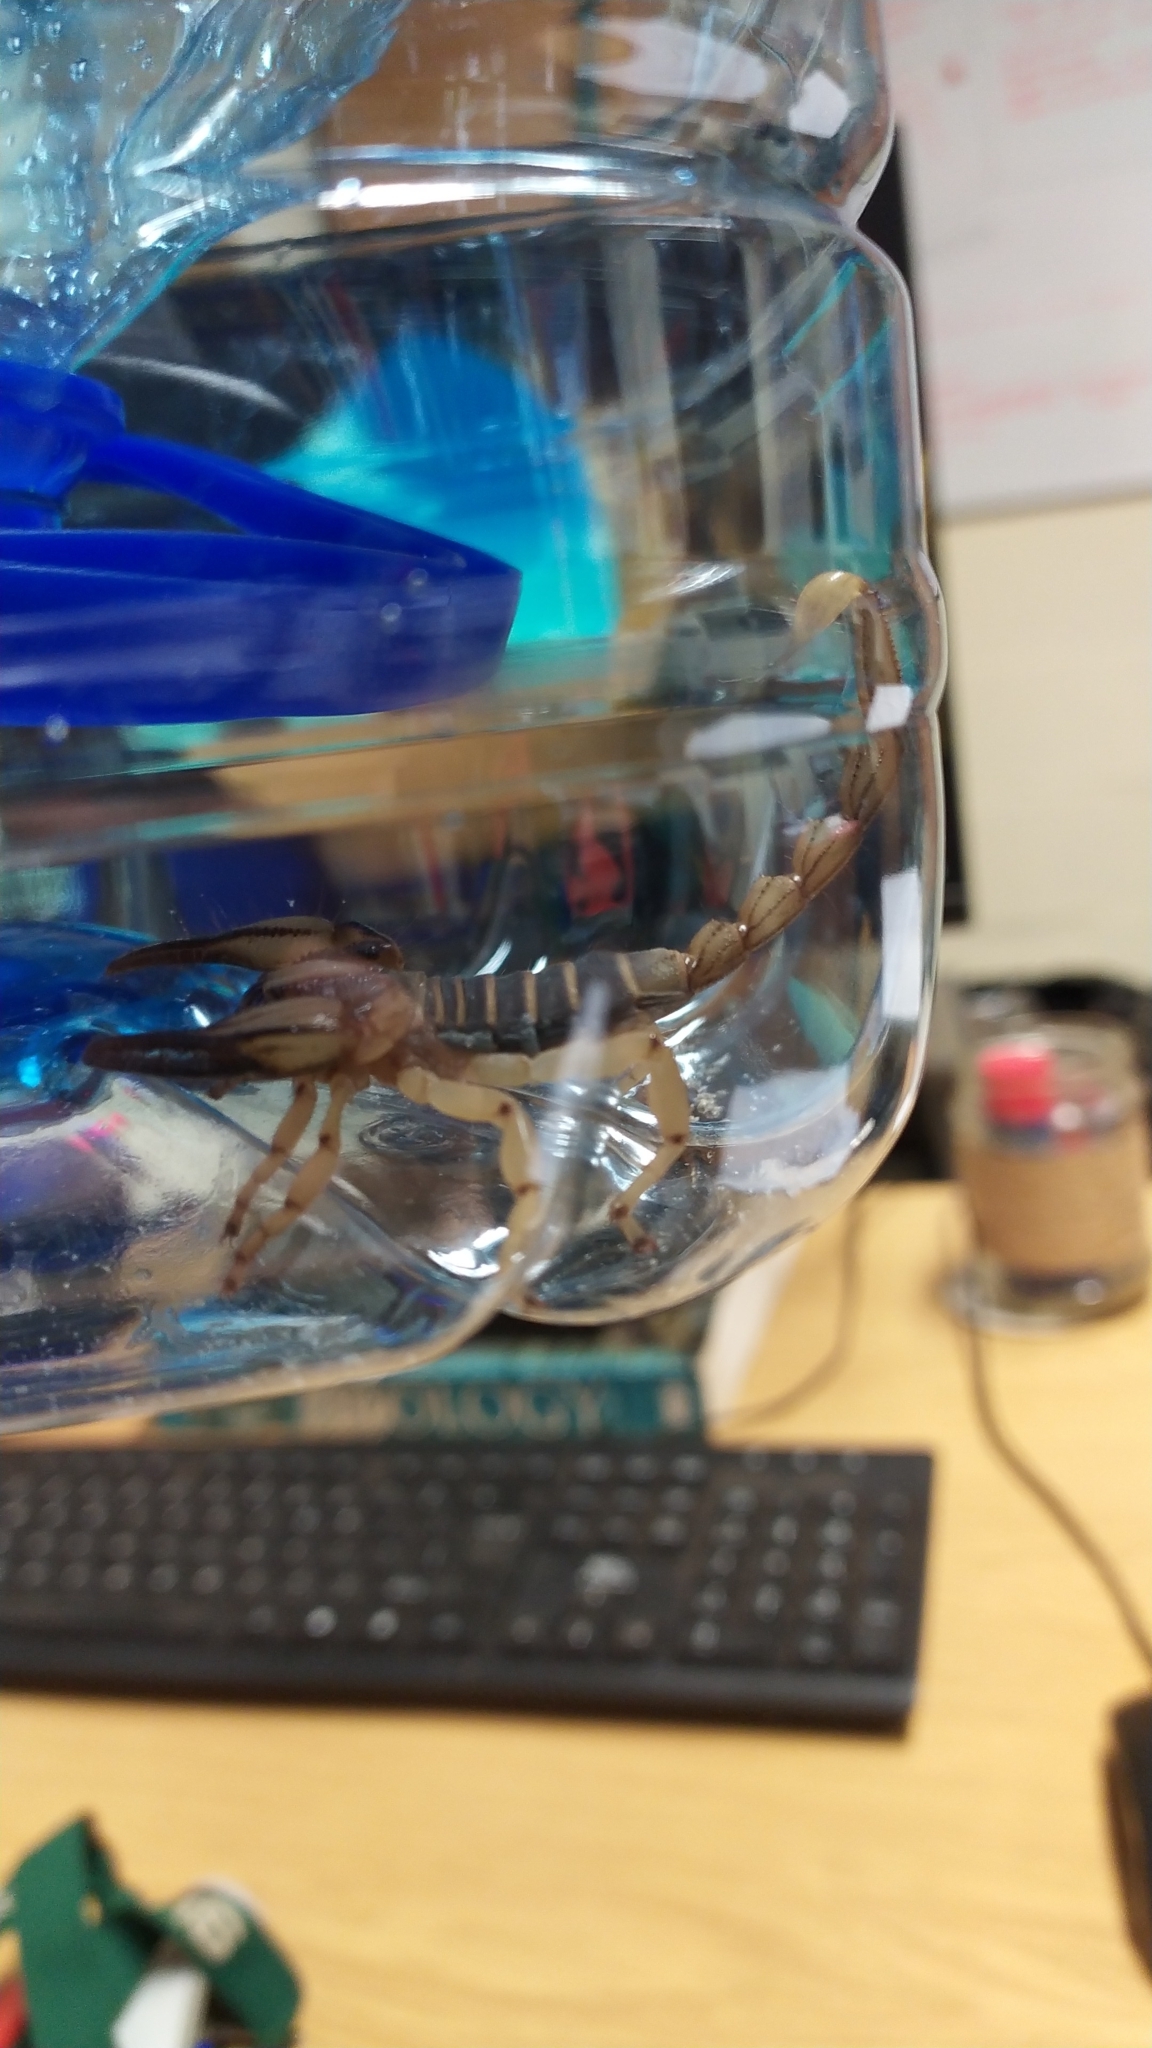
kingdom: Animalia
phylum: Arthropoda
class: Arachnida
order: Scorpiones
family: Scorpionidae
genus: Opistophthalmus
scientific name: Opistophthalmus capensis
